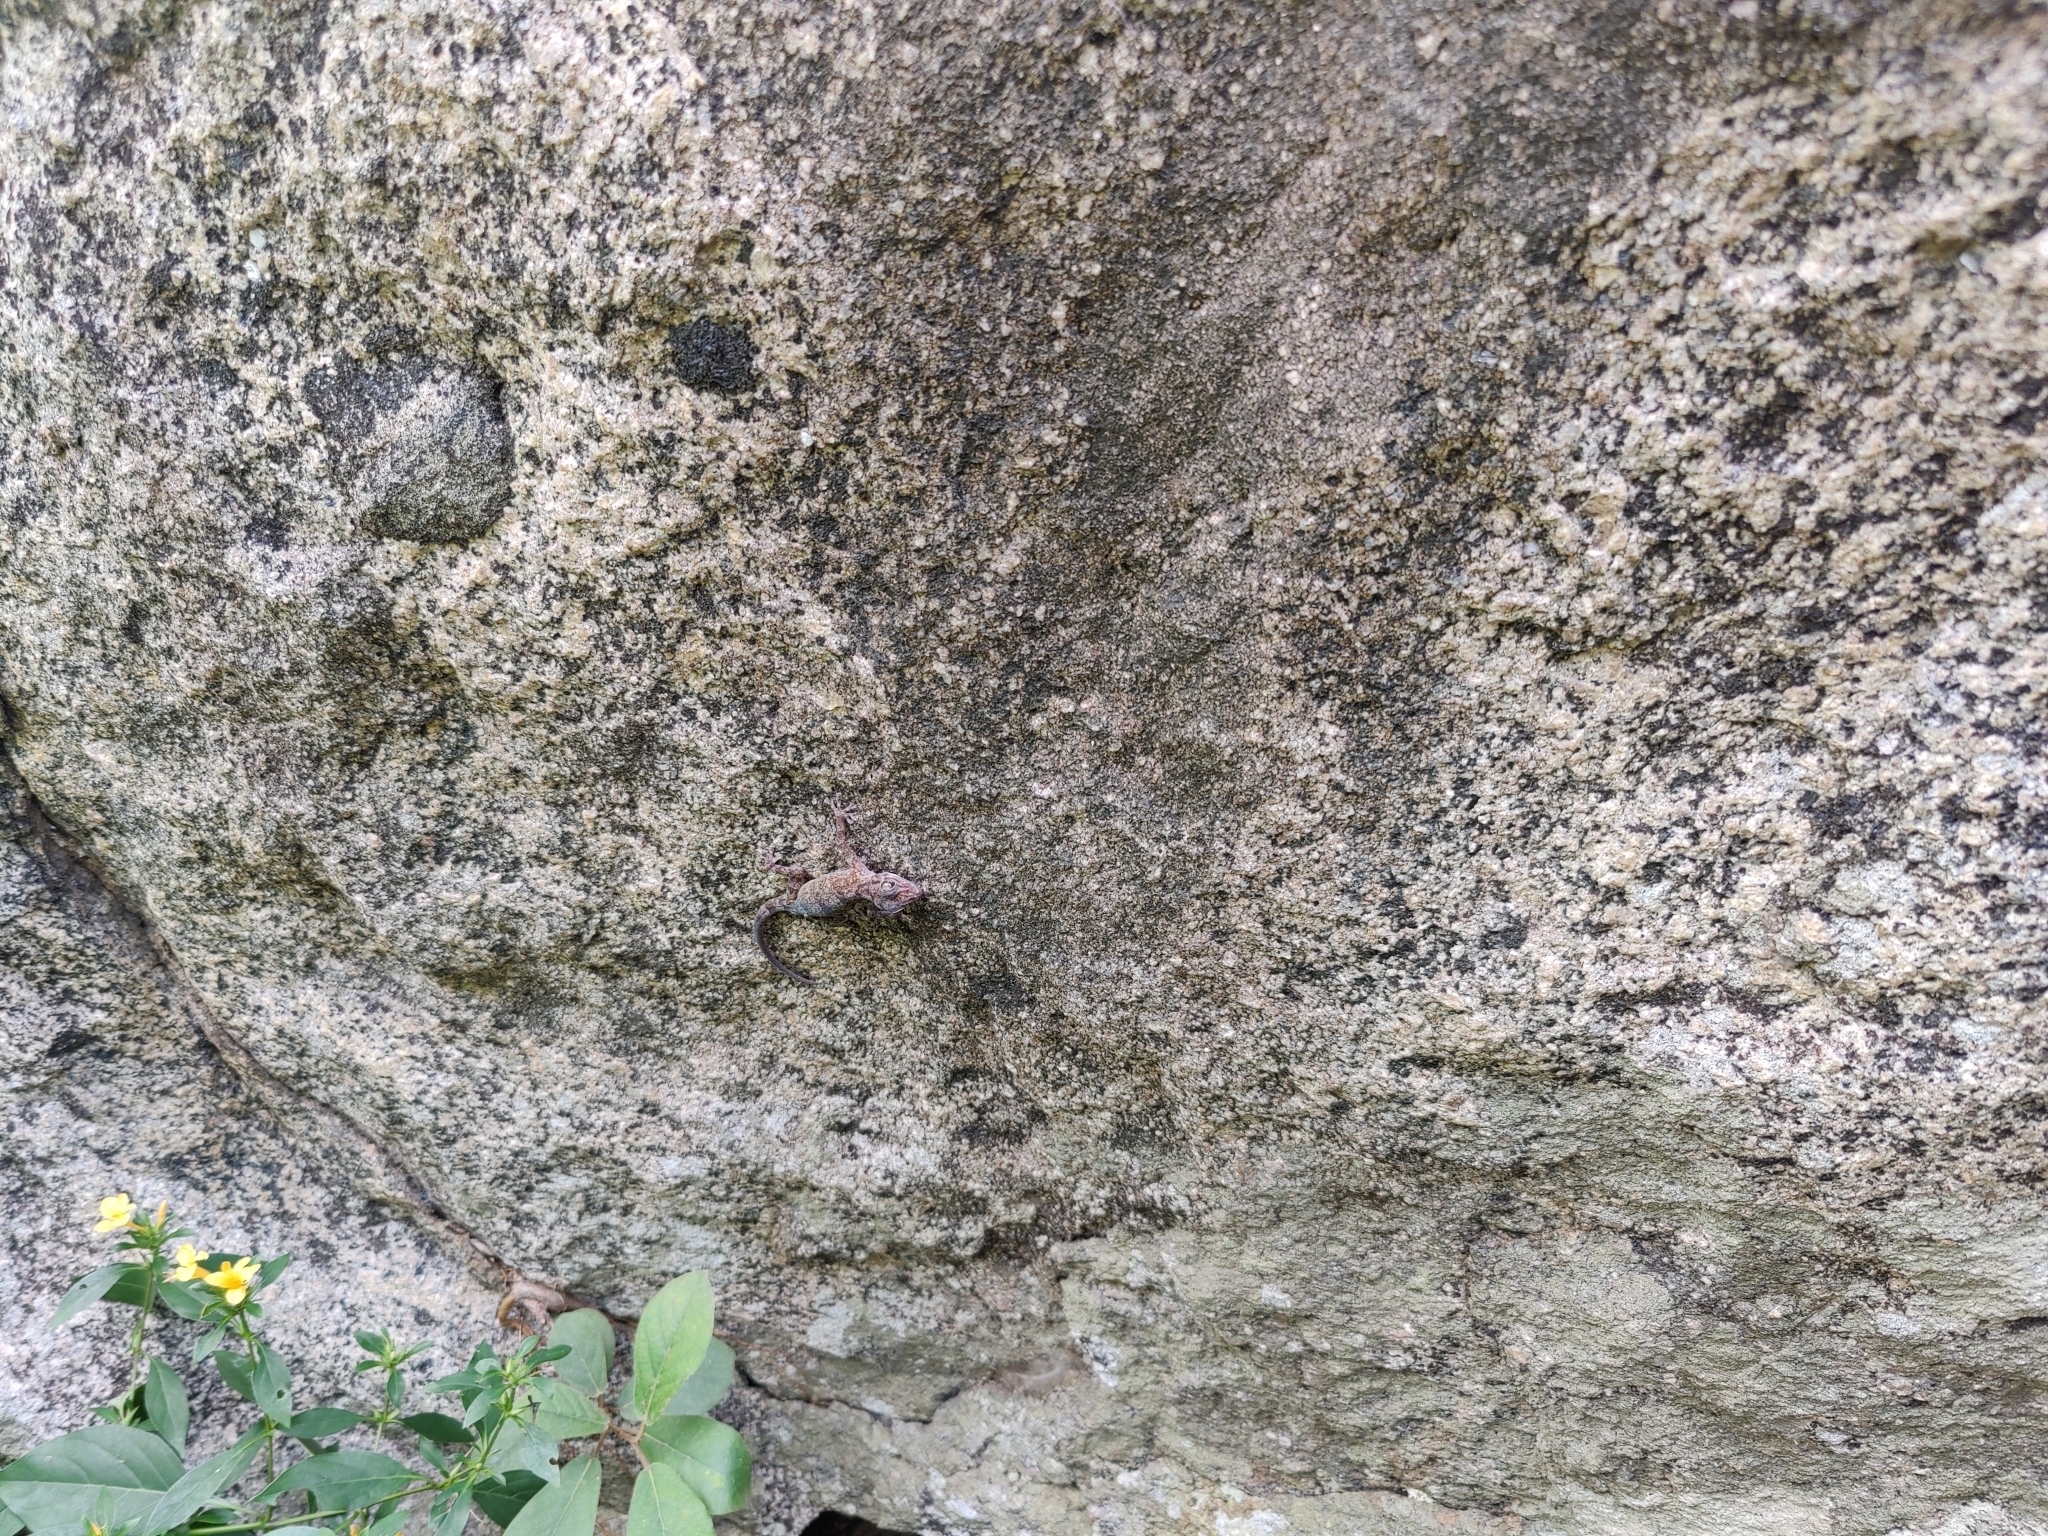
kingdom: Animalia
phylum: Chordata
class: Squamata
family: Gekkonidae
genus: Calodactylodes
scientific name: Calodactylodes aureus
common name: Indian golden gecko
